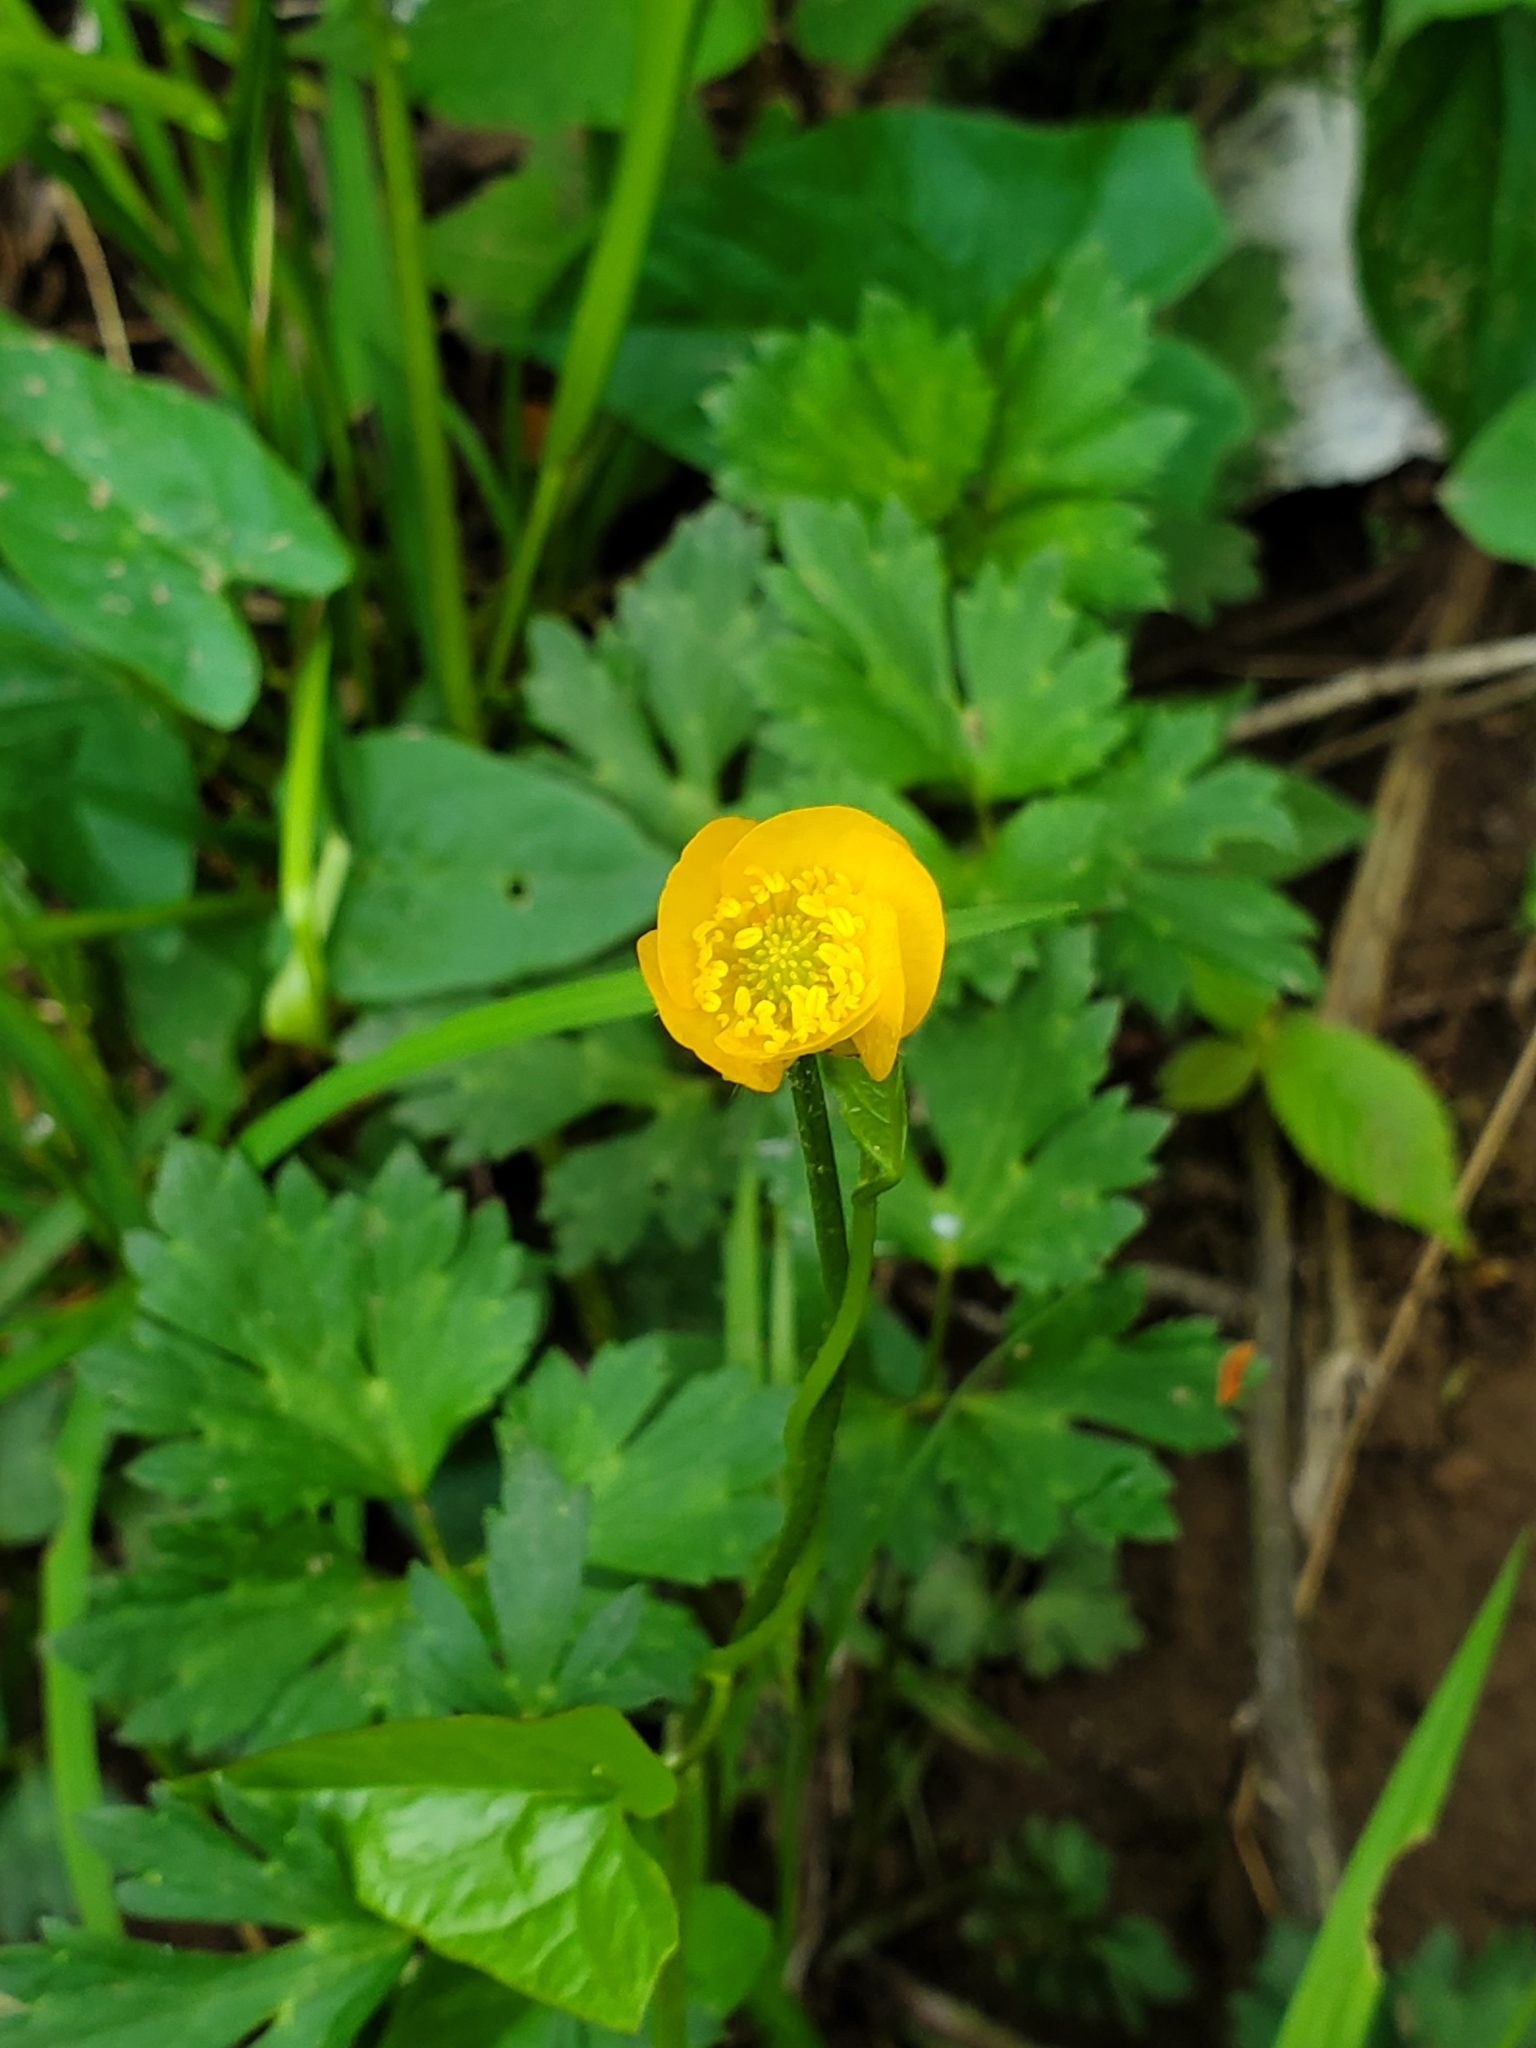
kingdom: Plantae
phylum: Tracheophyta
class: Magnoliopsida
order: Ranunculales
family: Ranunculaceae
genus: Ranunculus
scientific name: Ranunculus repens
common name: Creeping buttercup
